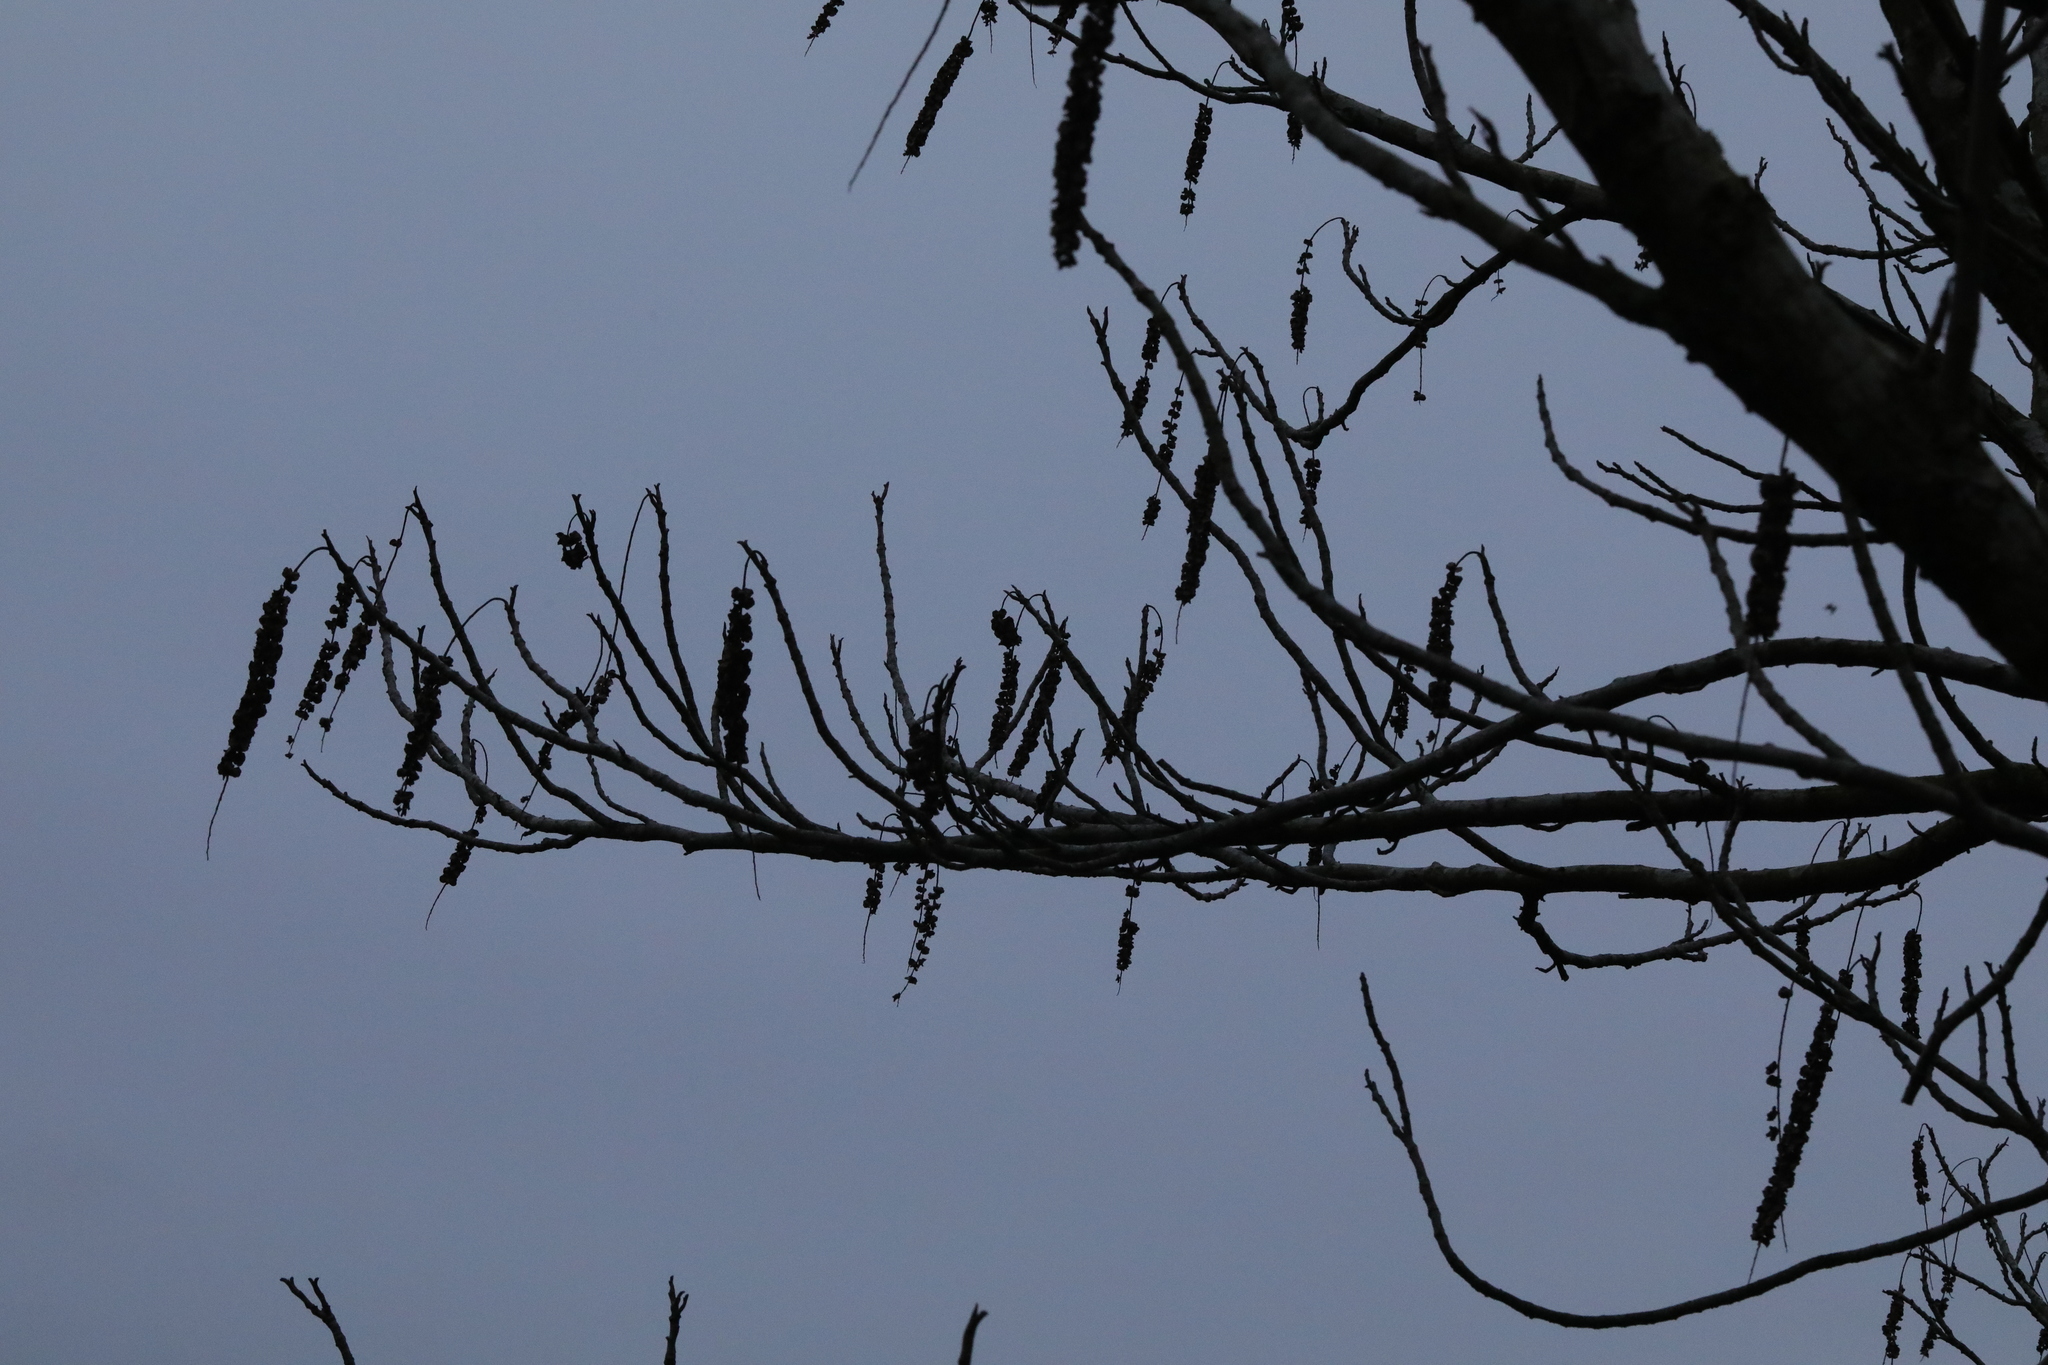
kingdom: Plantae
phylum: Tracheophyta
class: Magnoliopsida
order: Fagales
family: Juglandaceae
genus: Pterocarya
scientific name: Pterocarya fraxinifolia
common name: Caucasian wingnut
